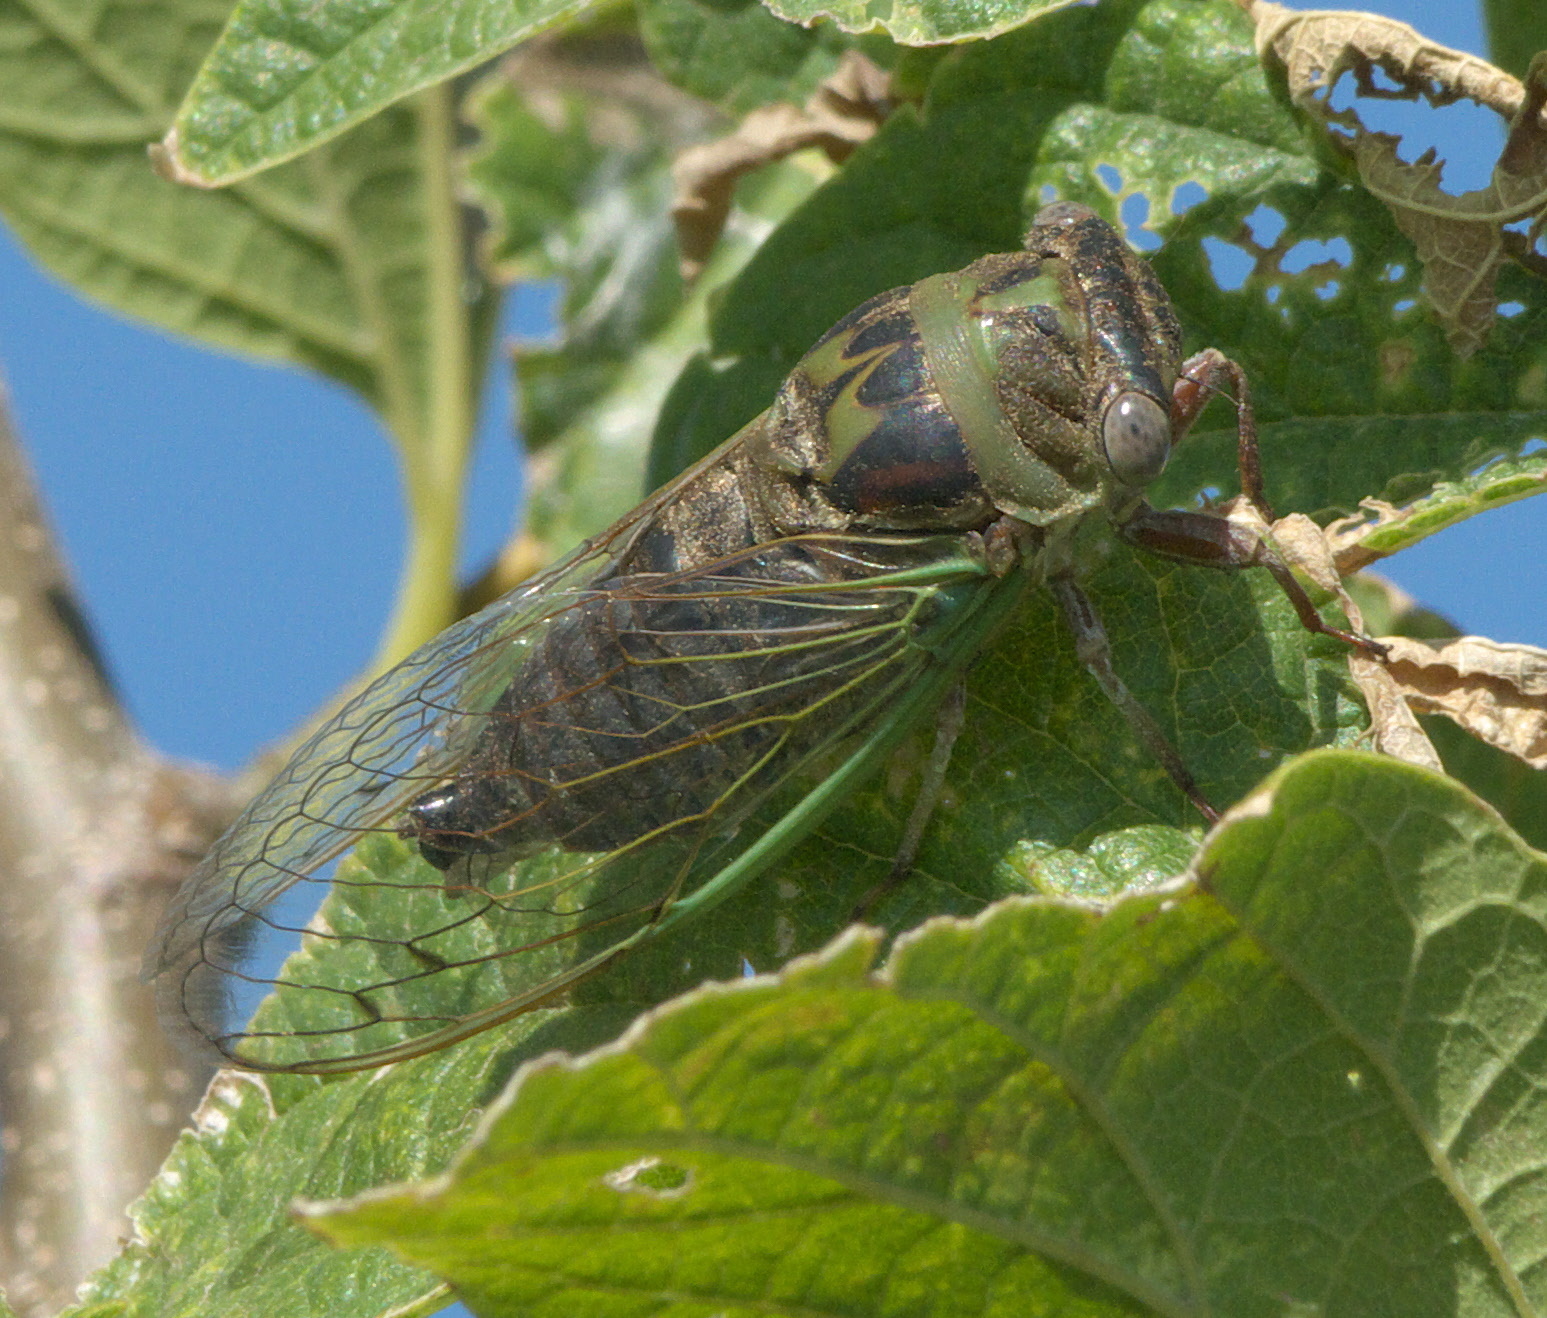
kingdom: Animalia
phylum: Arthropoda
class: Insecta
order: Hemiptera
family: Cicadidae
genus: Neotibicen
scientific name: Neotibicen aurifer
